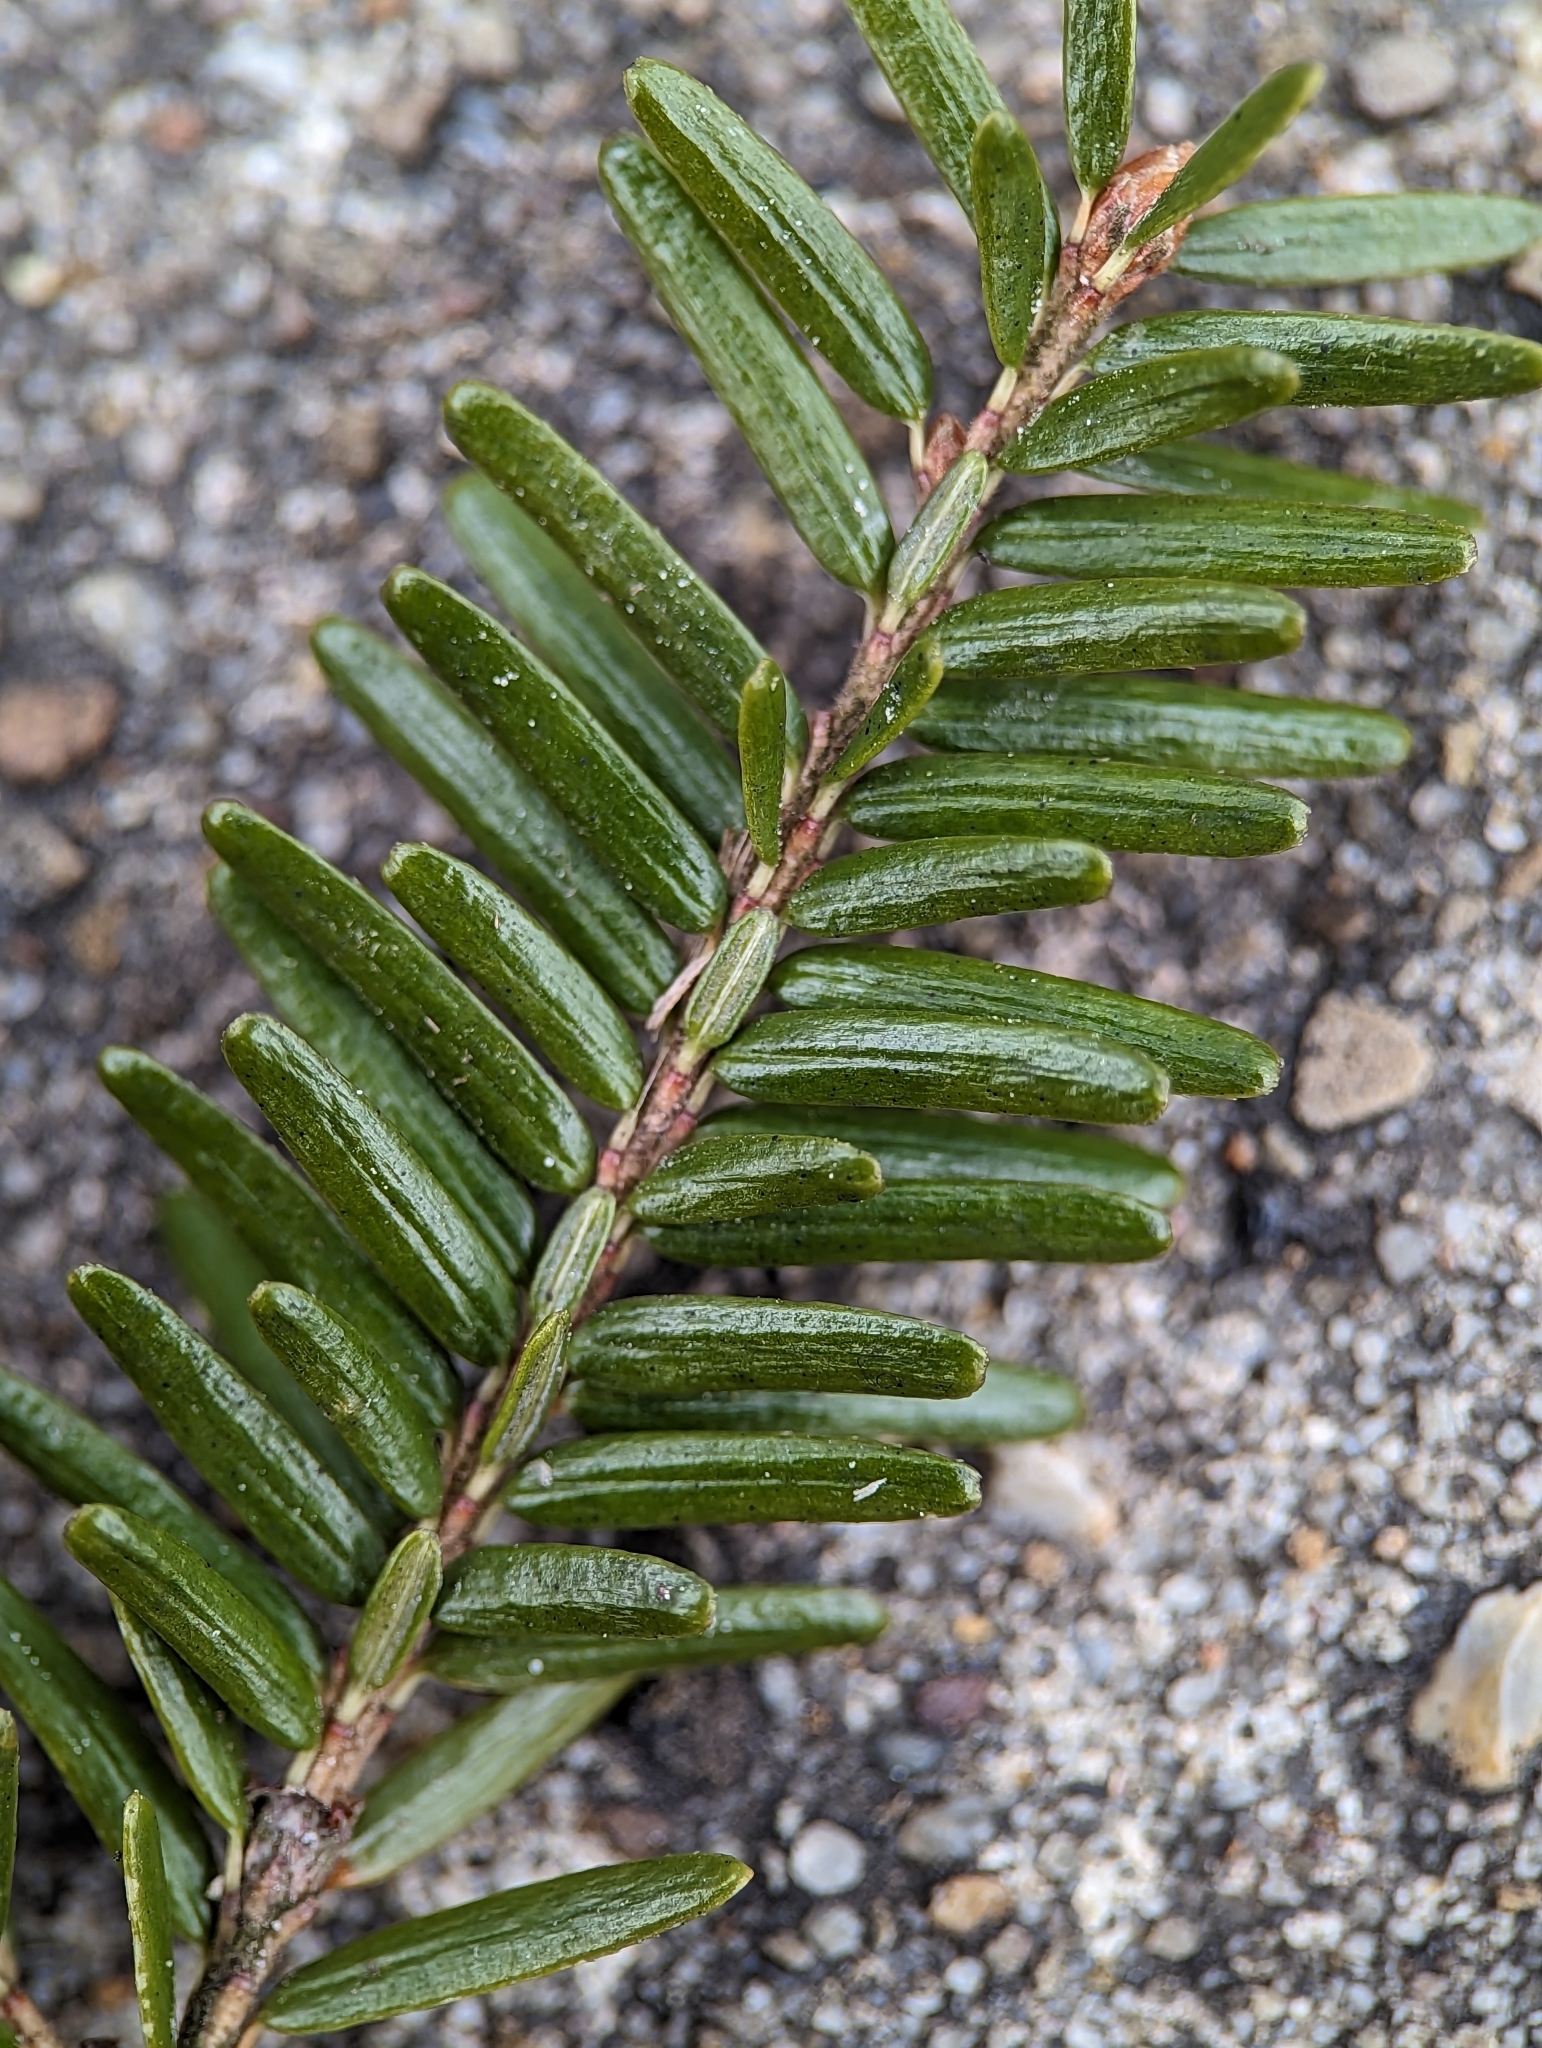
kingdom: Plantae
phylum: Tracheophyta
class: Pinopsida
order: Pinales
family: Pinaceae
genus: Tsuga
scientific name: Tsuga canadensis
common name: Eastern hemlock
